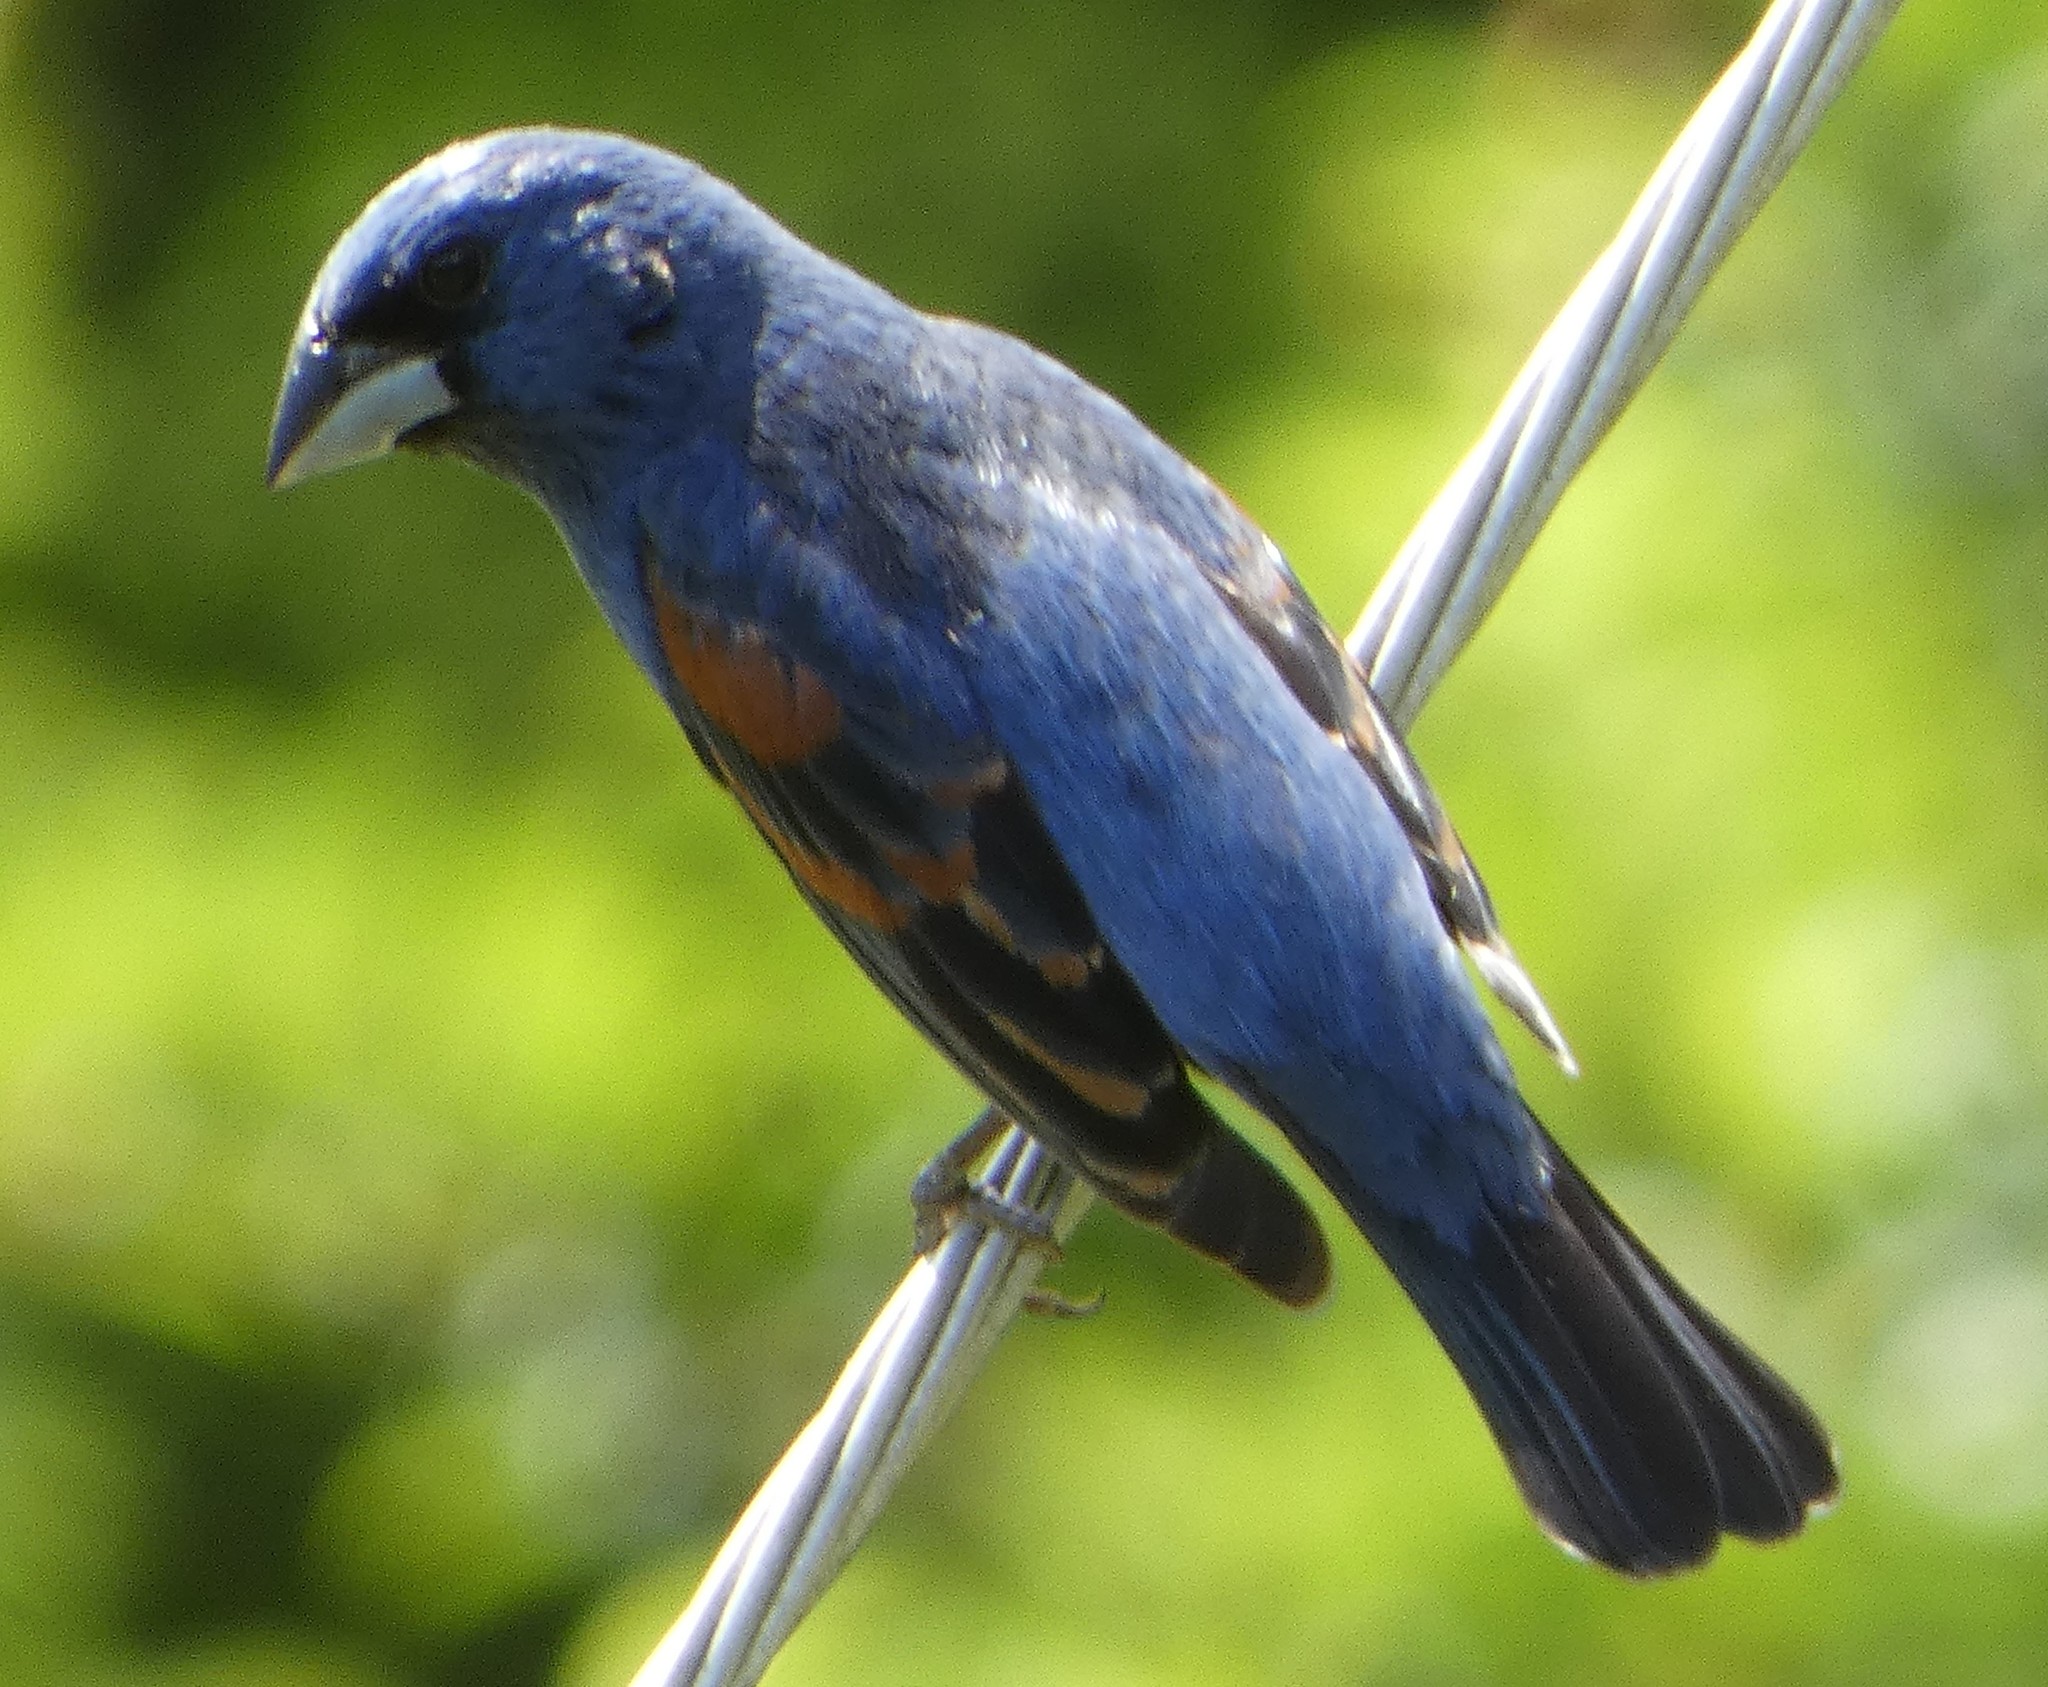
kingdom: Animalia
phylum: Chordata
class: Aves
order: Passeriformes
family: Cardinalidae
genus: Passerina
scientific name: Passerina caerulea
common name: Blue grosbeak
